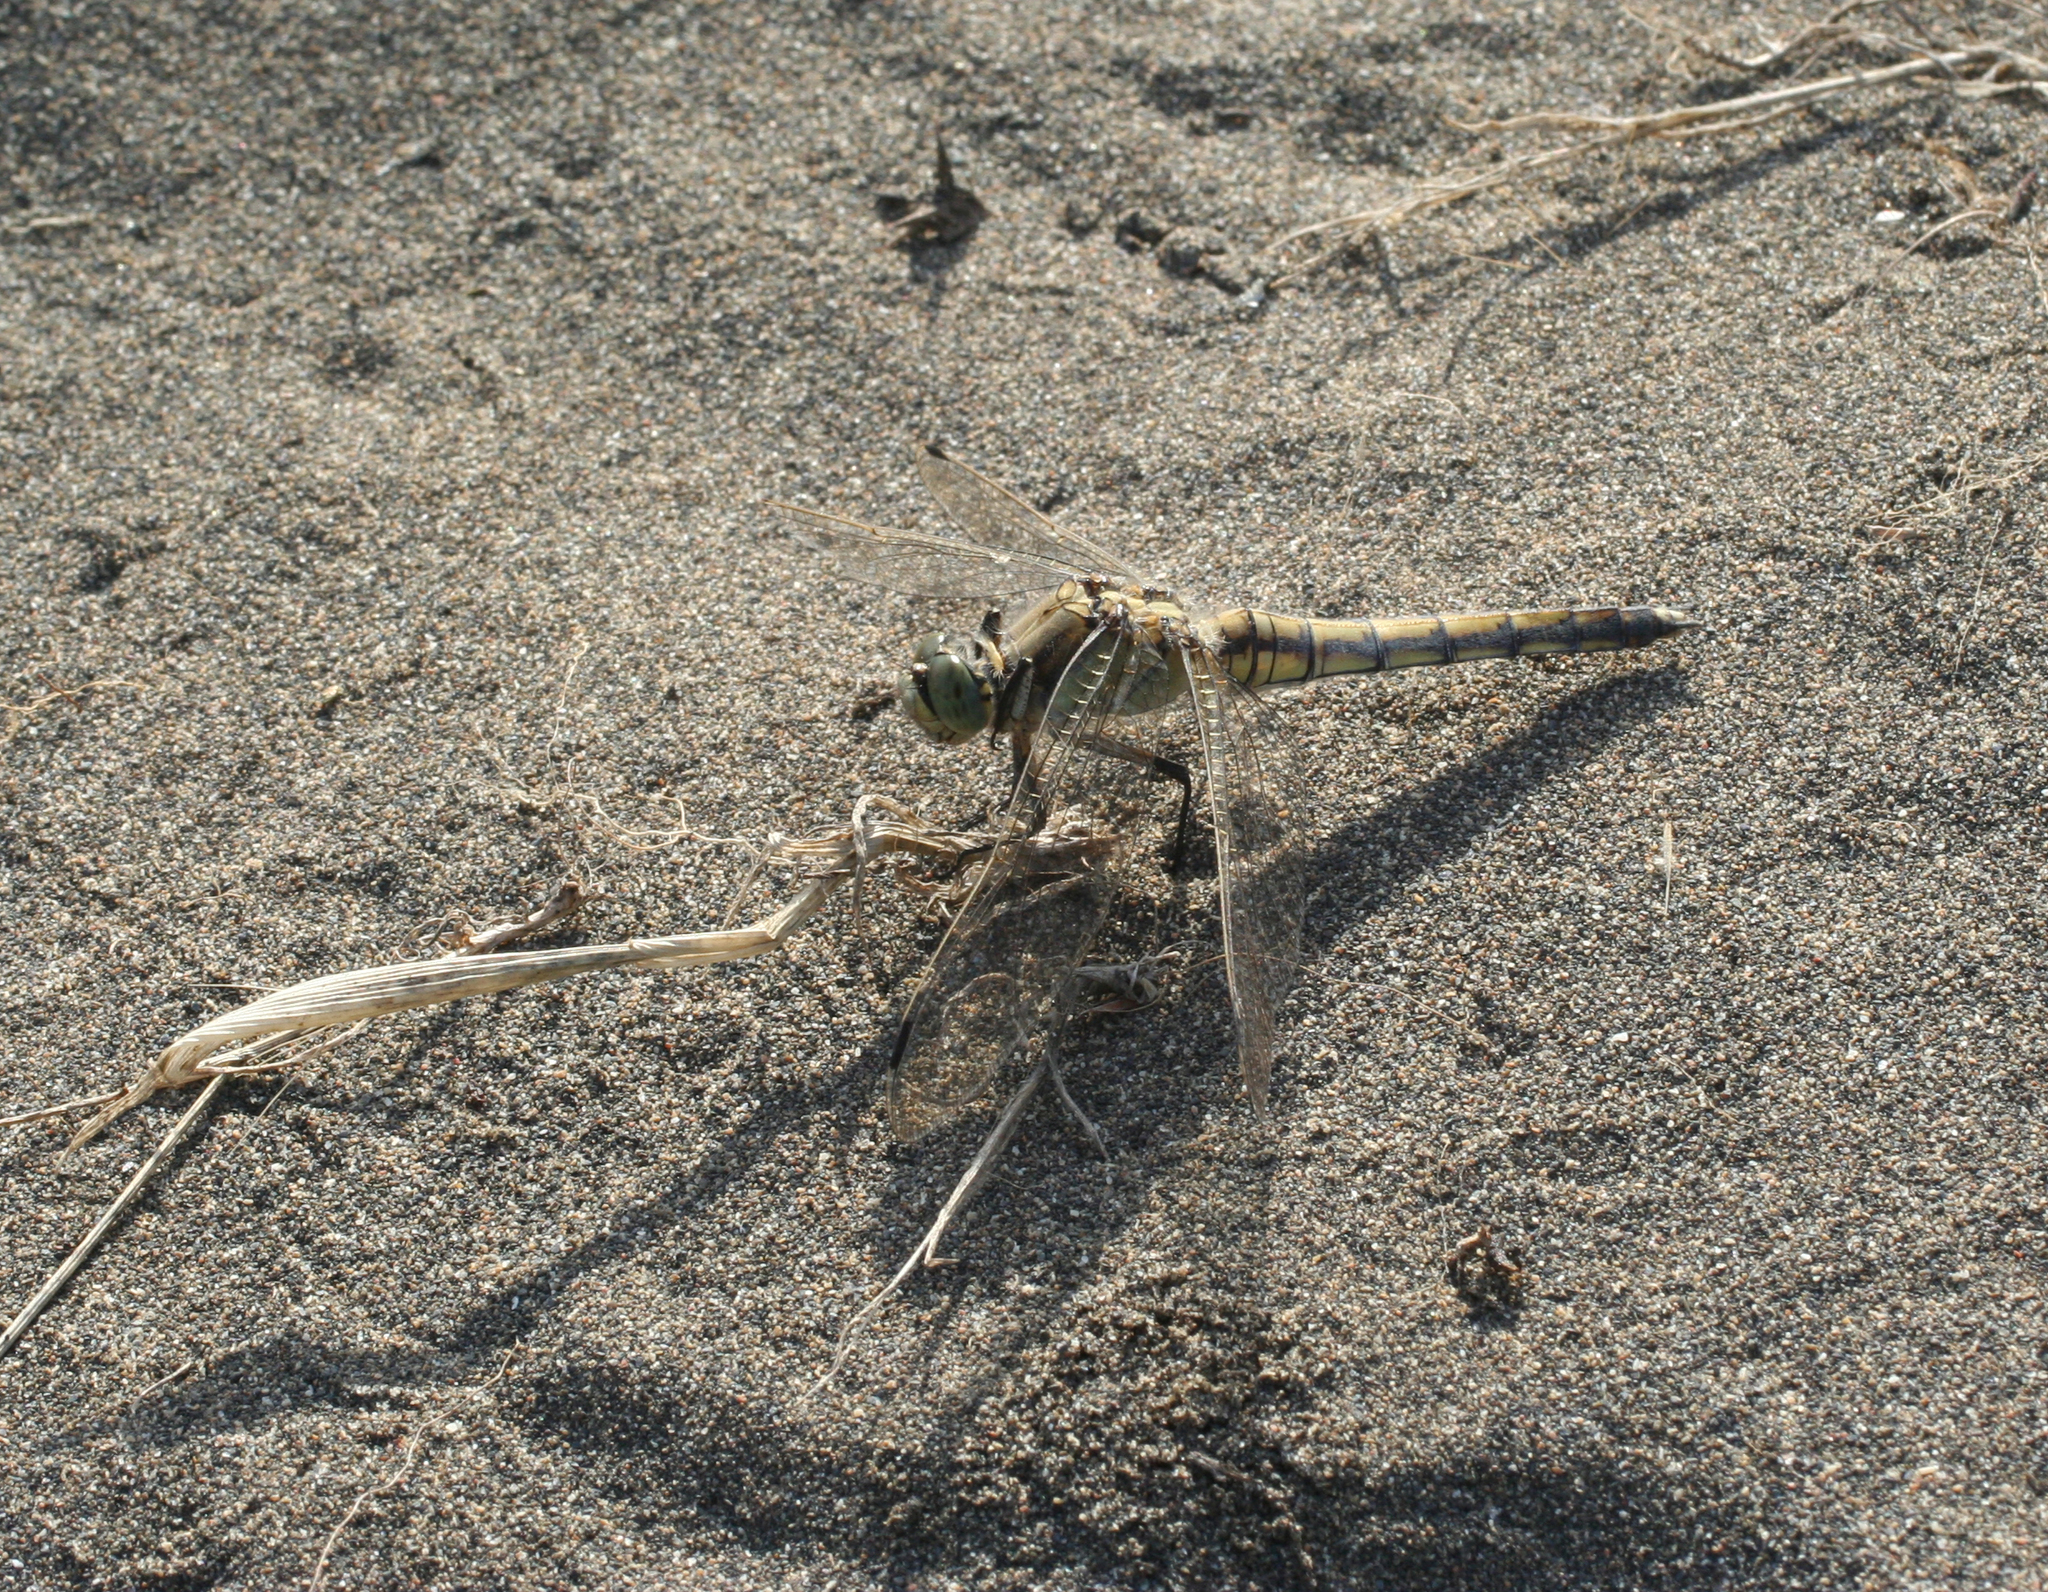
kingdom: Animalia
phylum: Arthropoda
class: Insecta
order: Odonata
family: Libellulidae
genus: Orthetrum
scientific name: Orthetrum cancellatum
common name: Black-tailed skimmer
